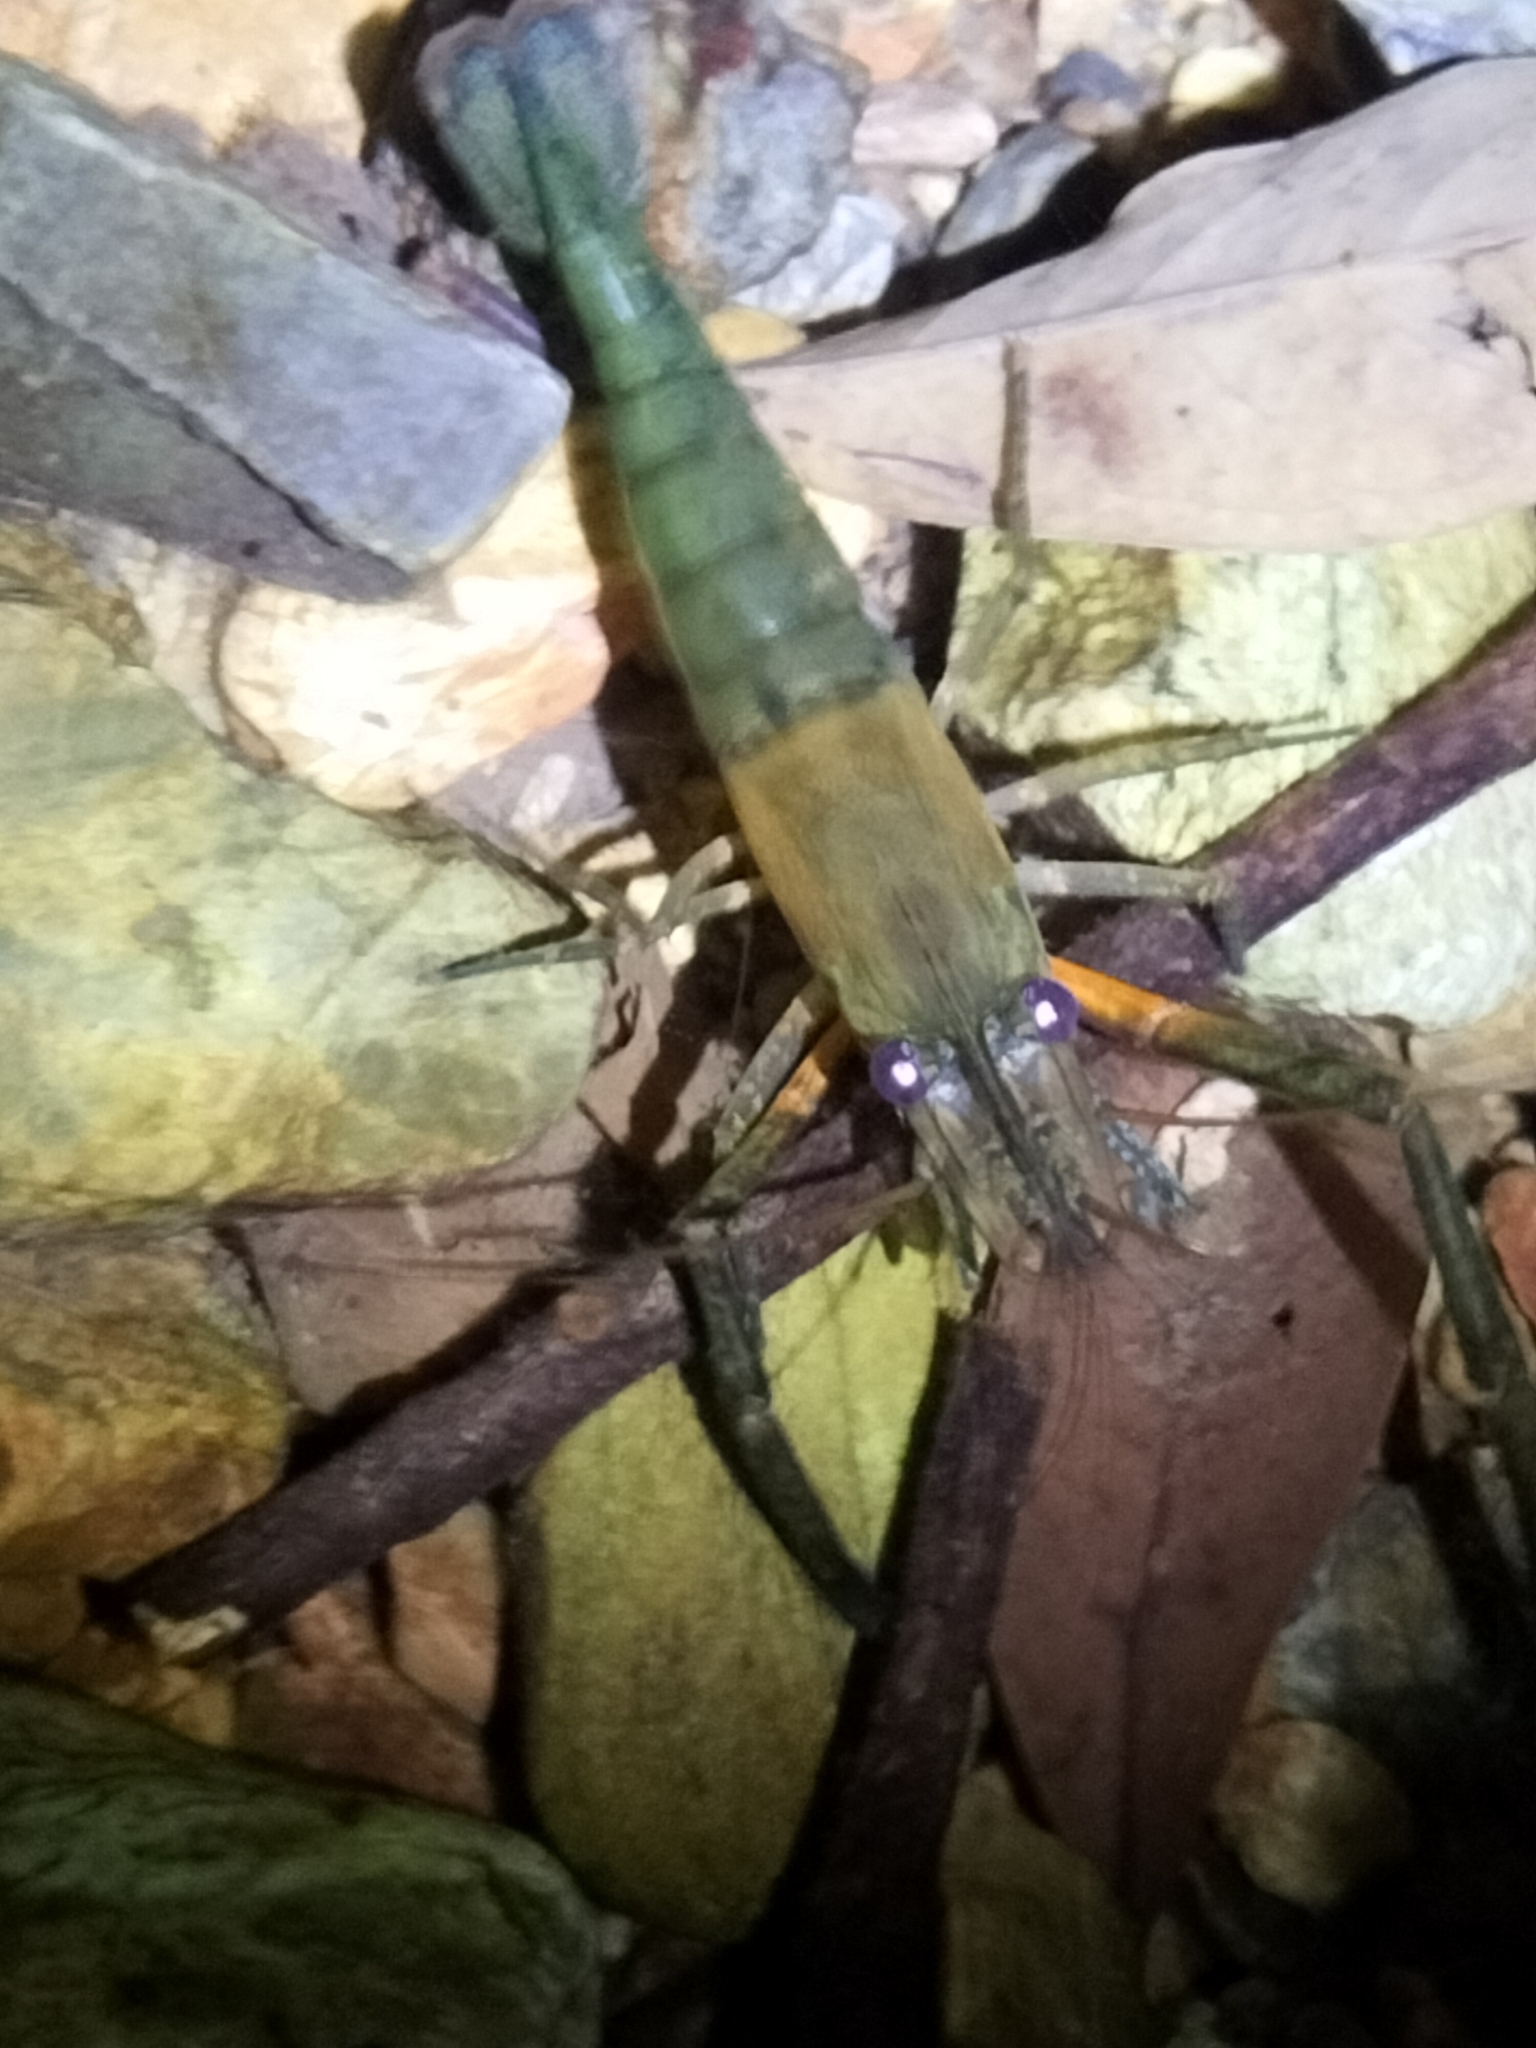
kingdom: Animalia
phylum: Arthropoda
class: Malacostraca
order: Decapoda
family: Palaemonidae
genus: Macrobrachium
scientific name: Macrobrachium tolmerum
